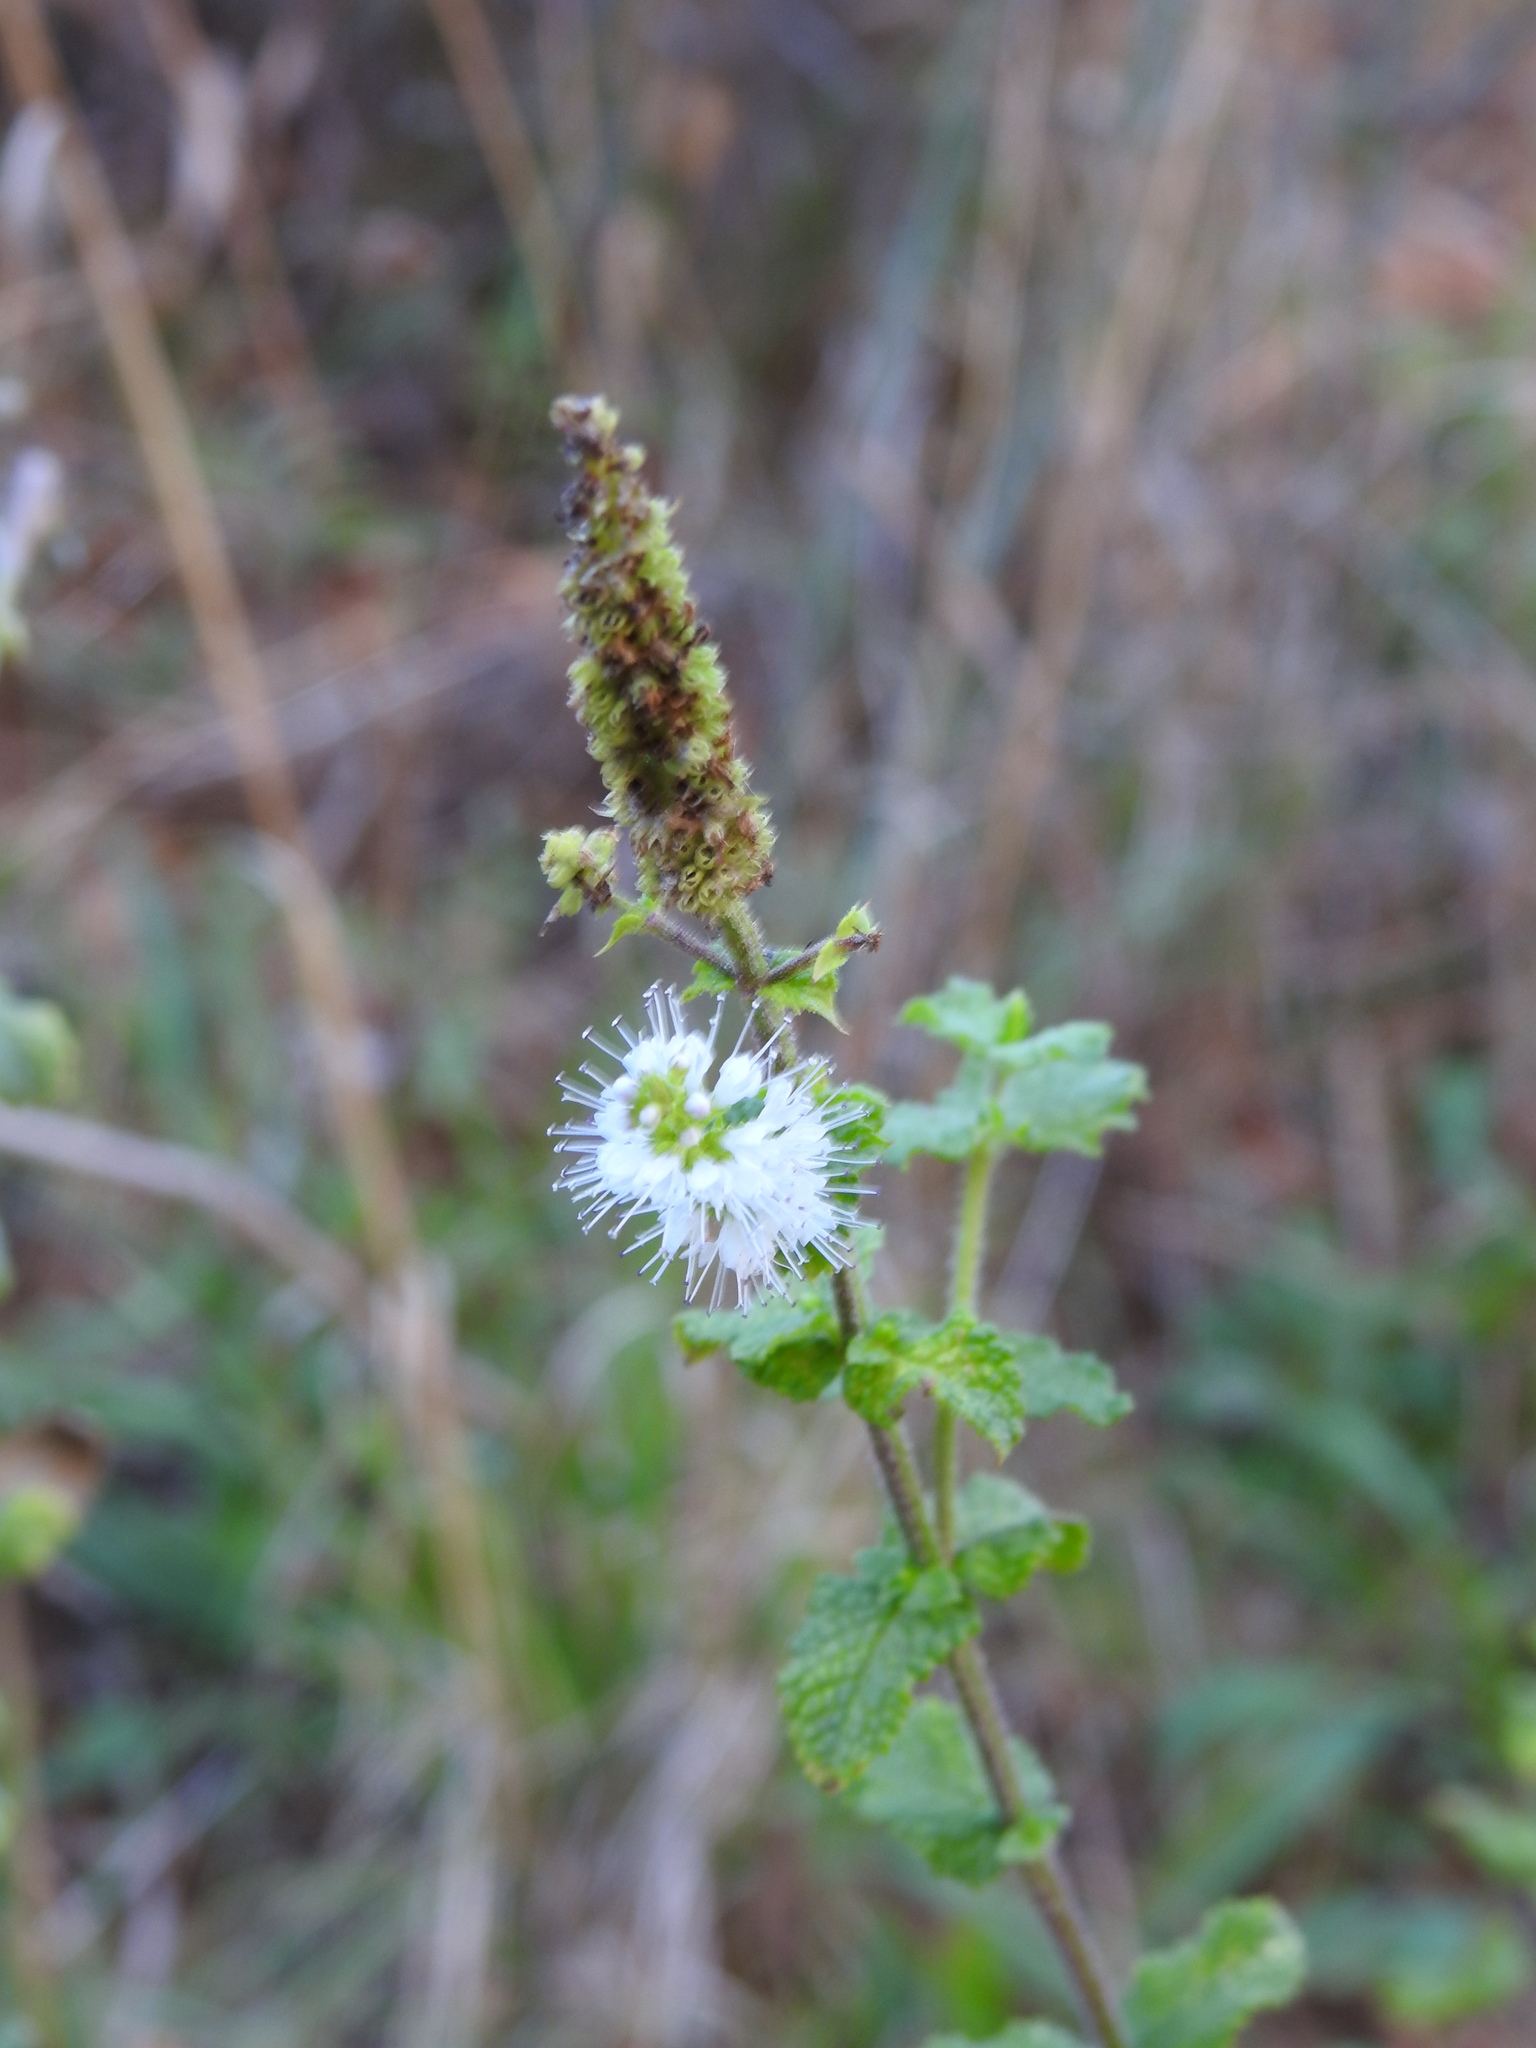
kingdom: Plantae
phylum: Tracheophyta
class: Magnoliopsida
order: Lamiales
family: Lamiaceae
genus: Mentha
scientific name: Mentha suaveolens
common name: Apple mint
